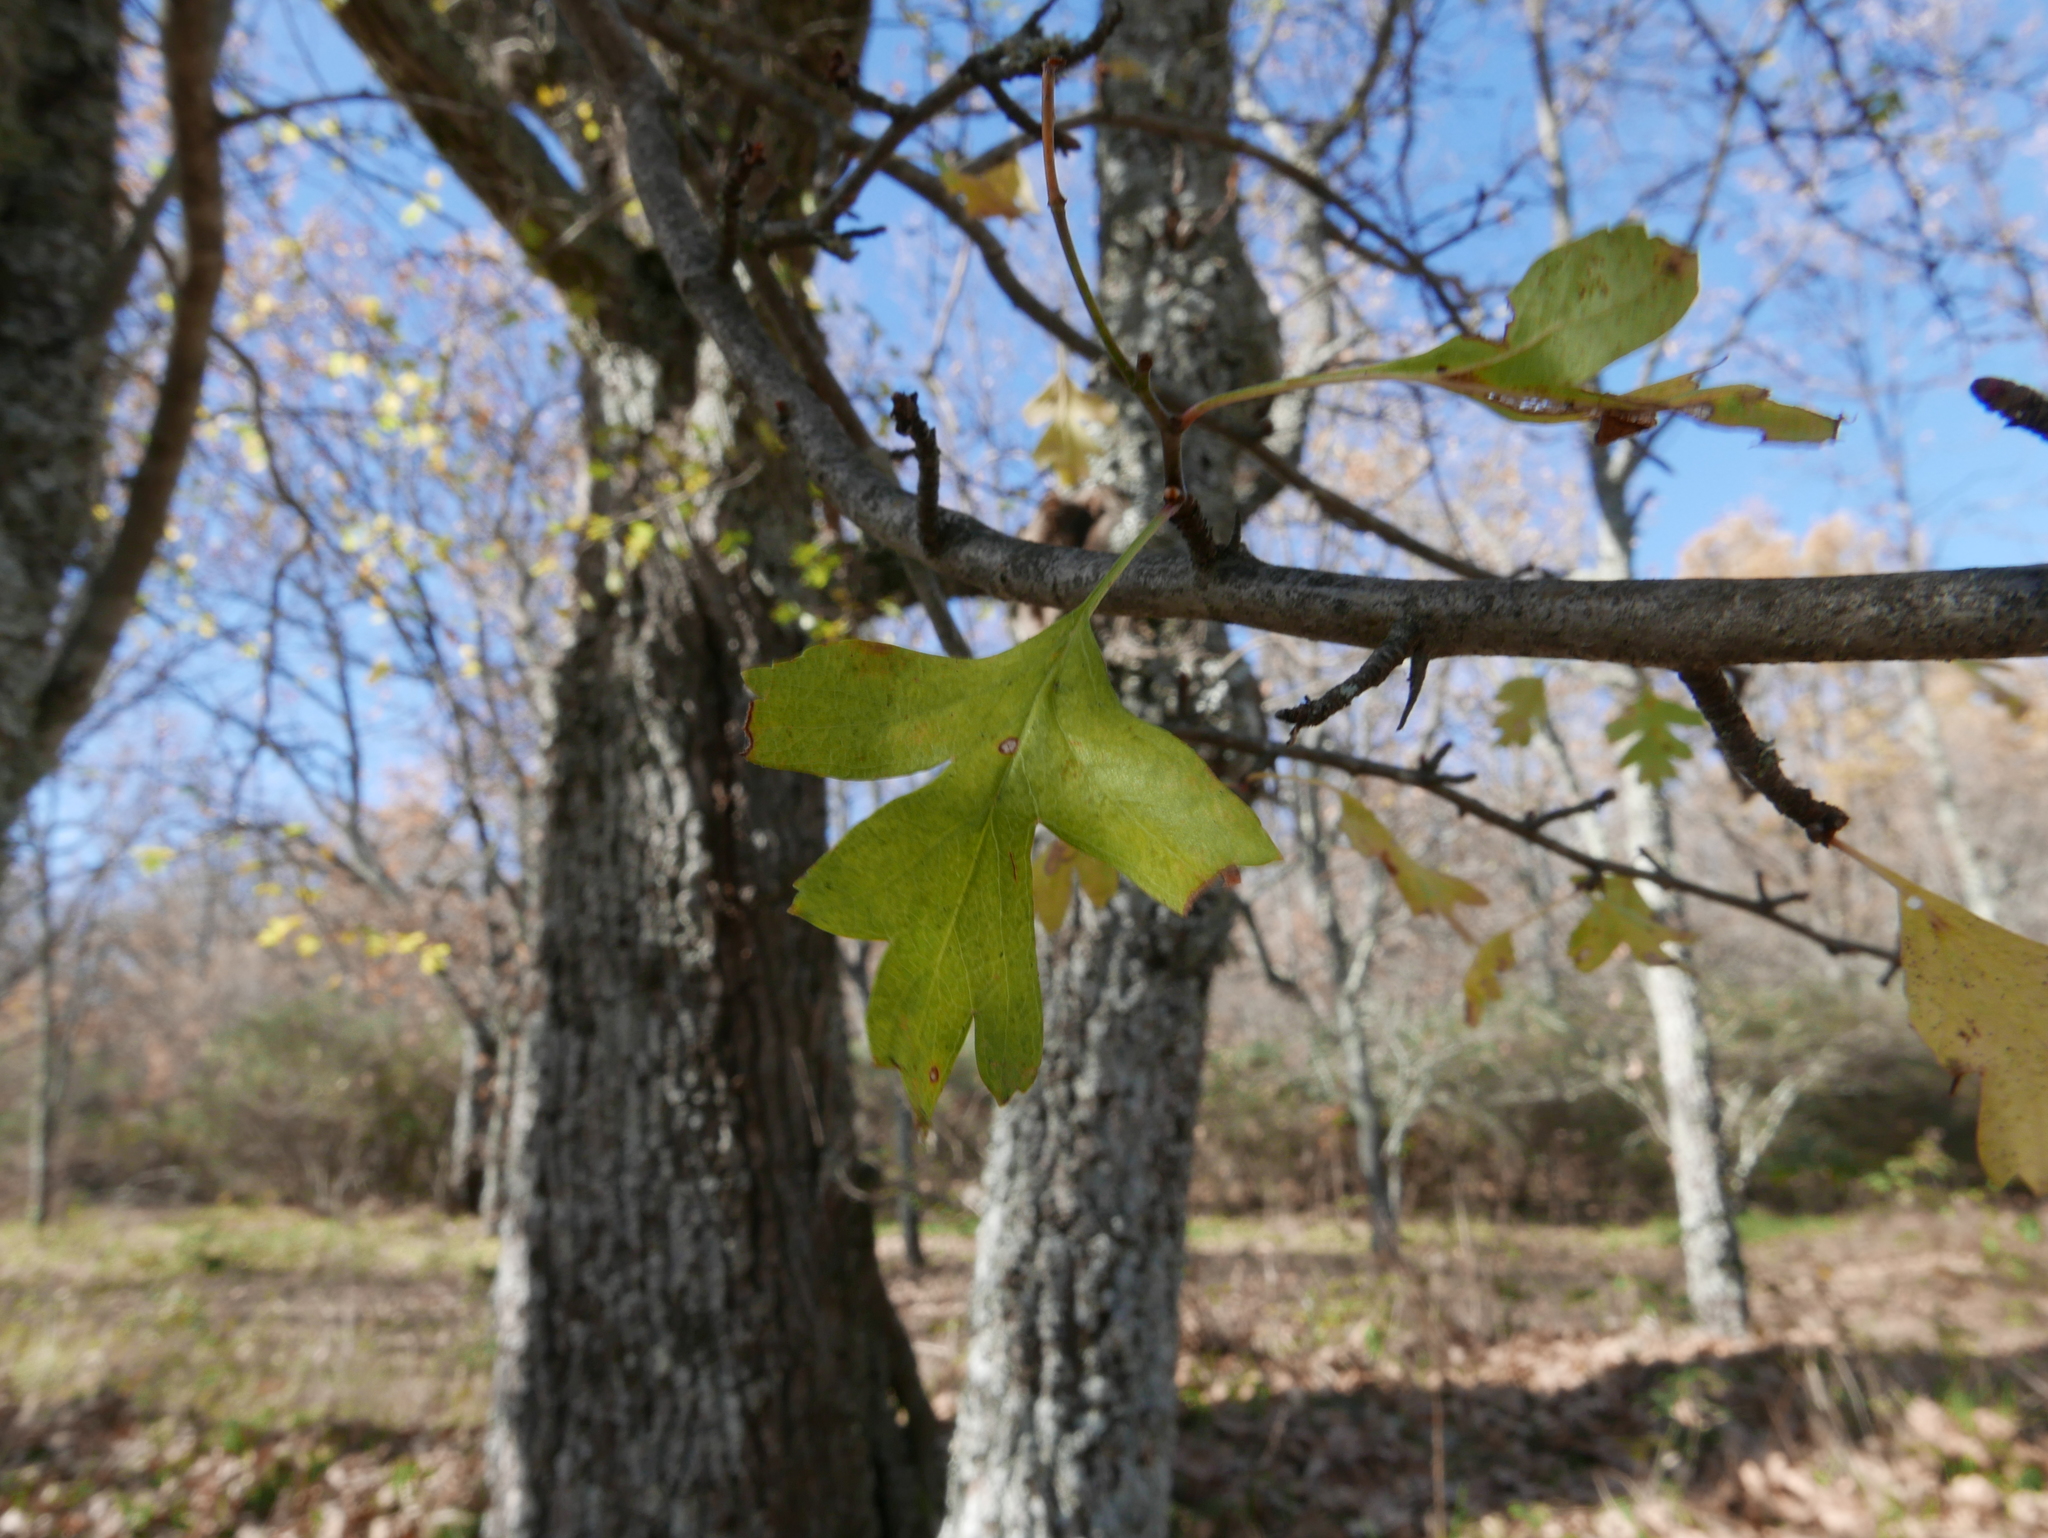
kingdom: Plantae
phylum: Tracheophyta
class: Magnoliopsida
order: Rosales
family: Rosaceae
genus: Crataegus
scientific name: Crataegus monogyna
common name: Hawthorn
